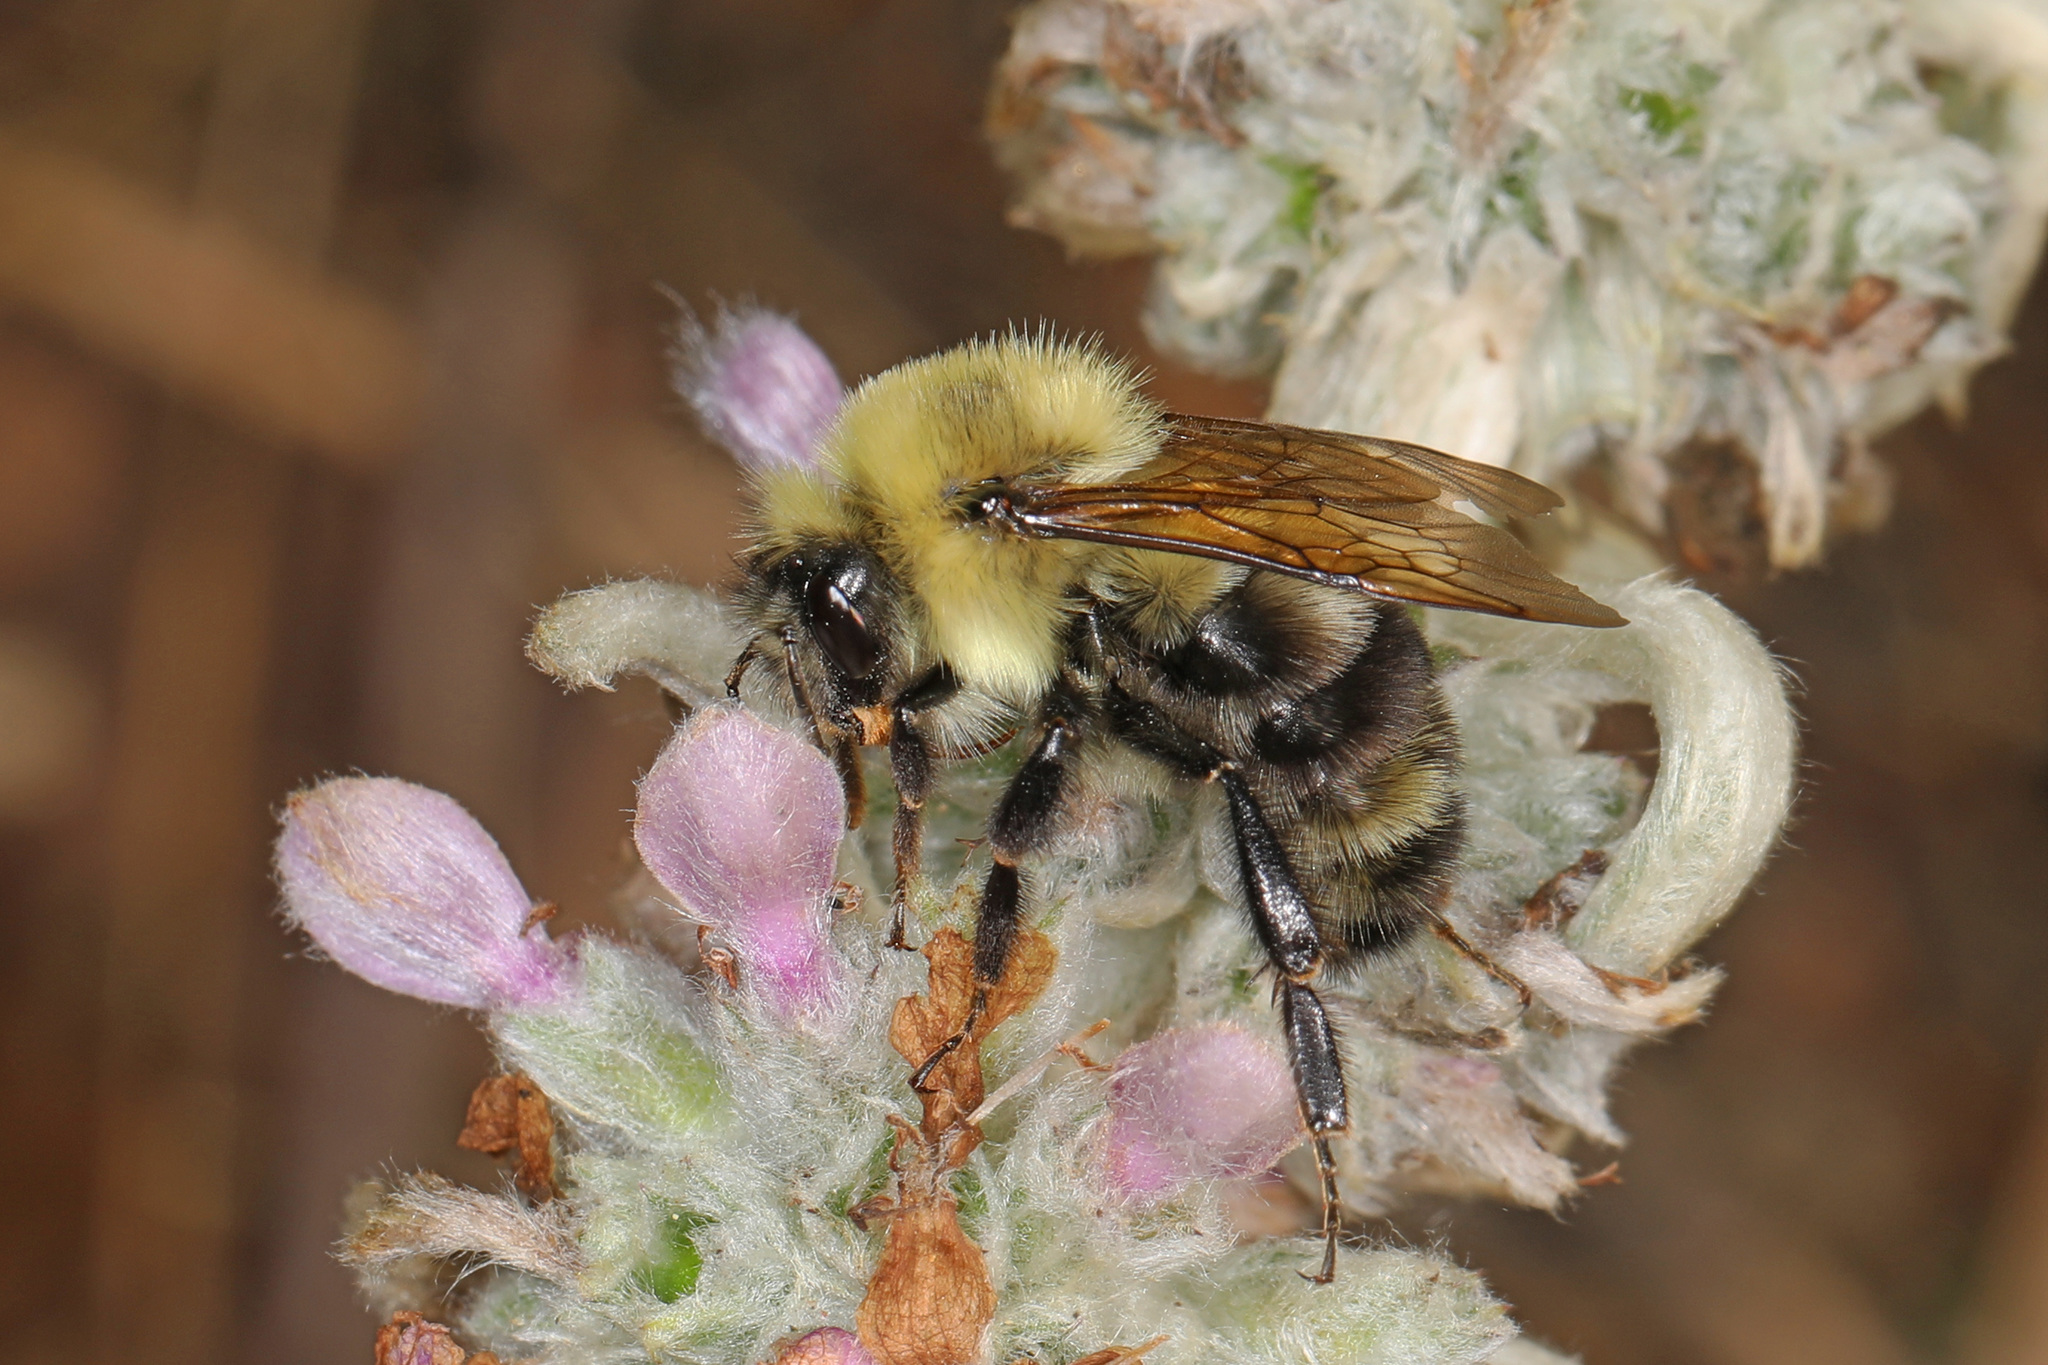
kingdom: Animalia
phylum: Arthropoda
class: Insecta
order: Hymenoptera
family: Apidae
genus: Bombus
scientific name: Bombus bimaculatus
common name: Two-spotted bumble bee
